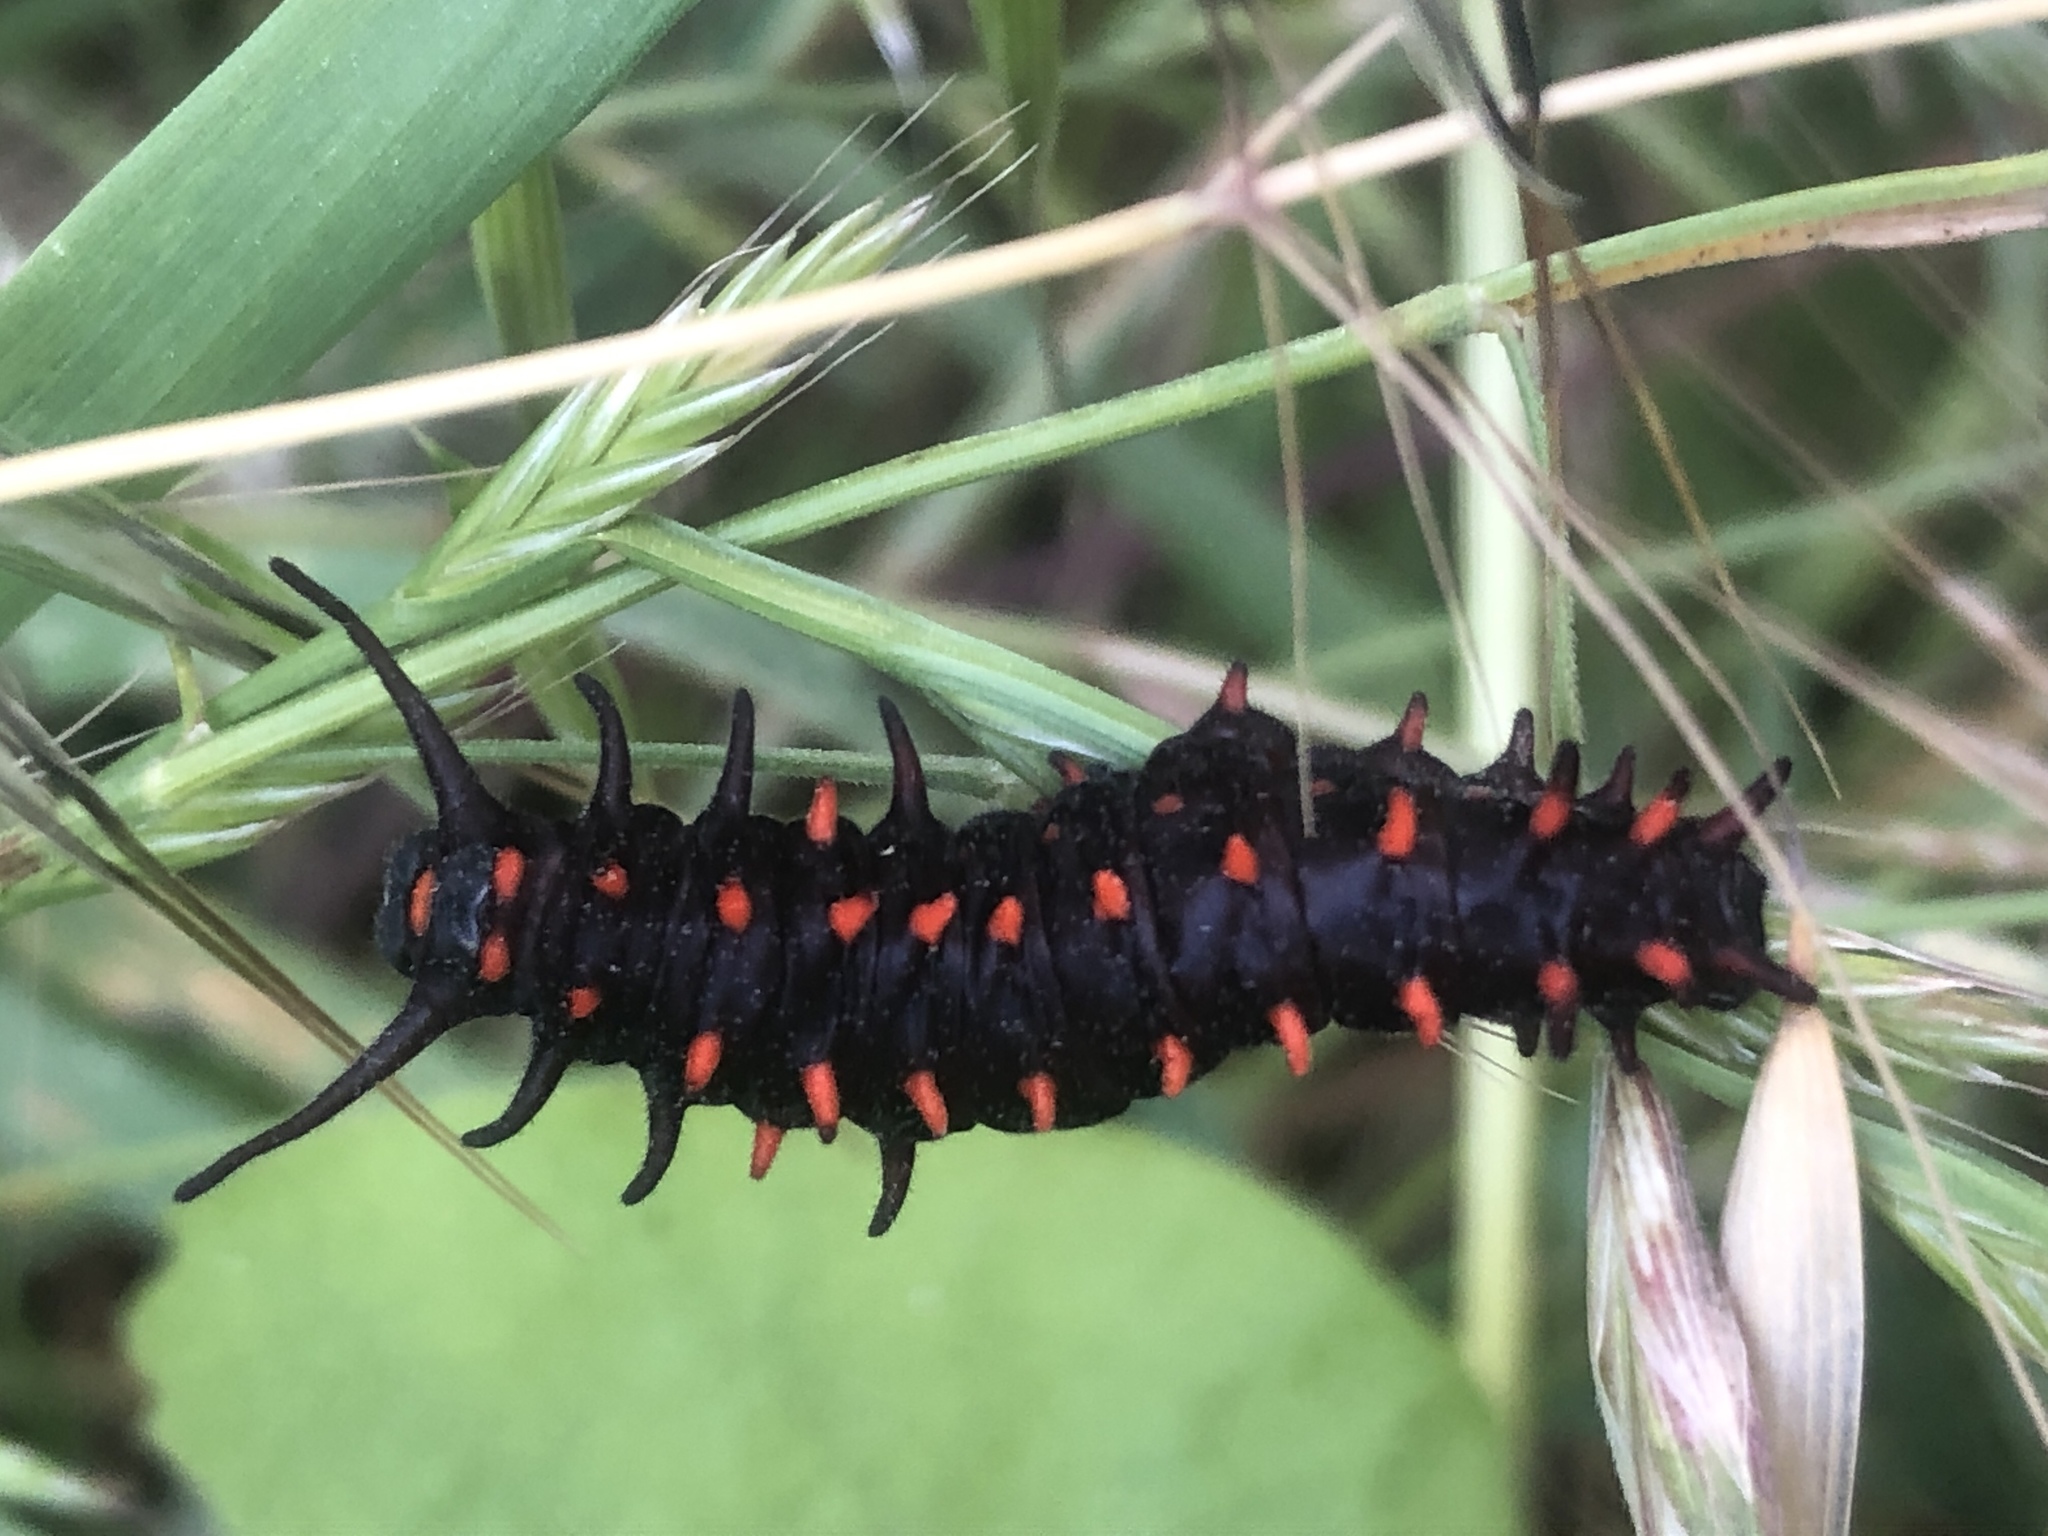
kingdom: Animalia
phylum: Arthropoda
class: Insecta
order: Lepidoptera
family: Papilionidae
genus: Battus
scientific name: Battus philenor
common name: Pipevine swallowtail
